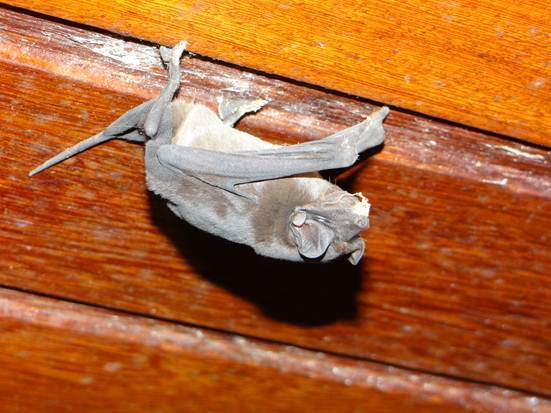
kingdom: Animalia
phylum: Chordata
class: Mammalia
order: Chiroptera
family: Molossidae
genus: Molossus
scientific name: Molossus molossus
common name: Pallas's mastiff bat
